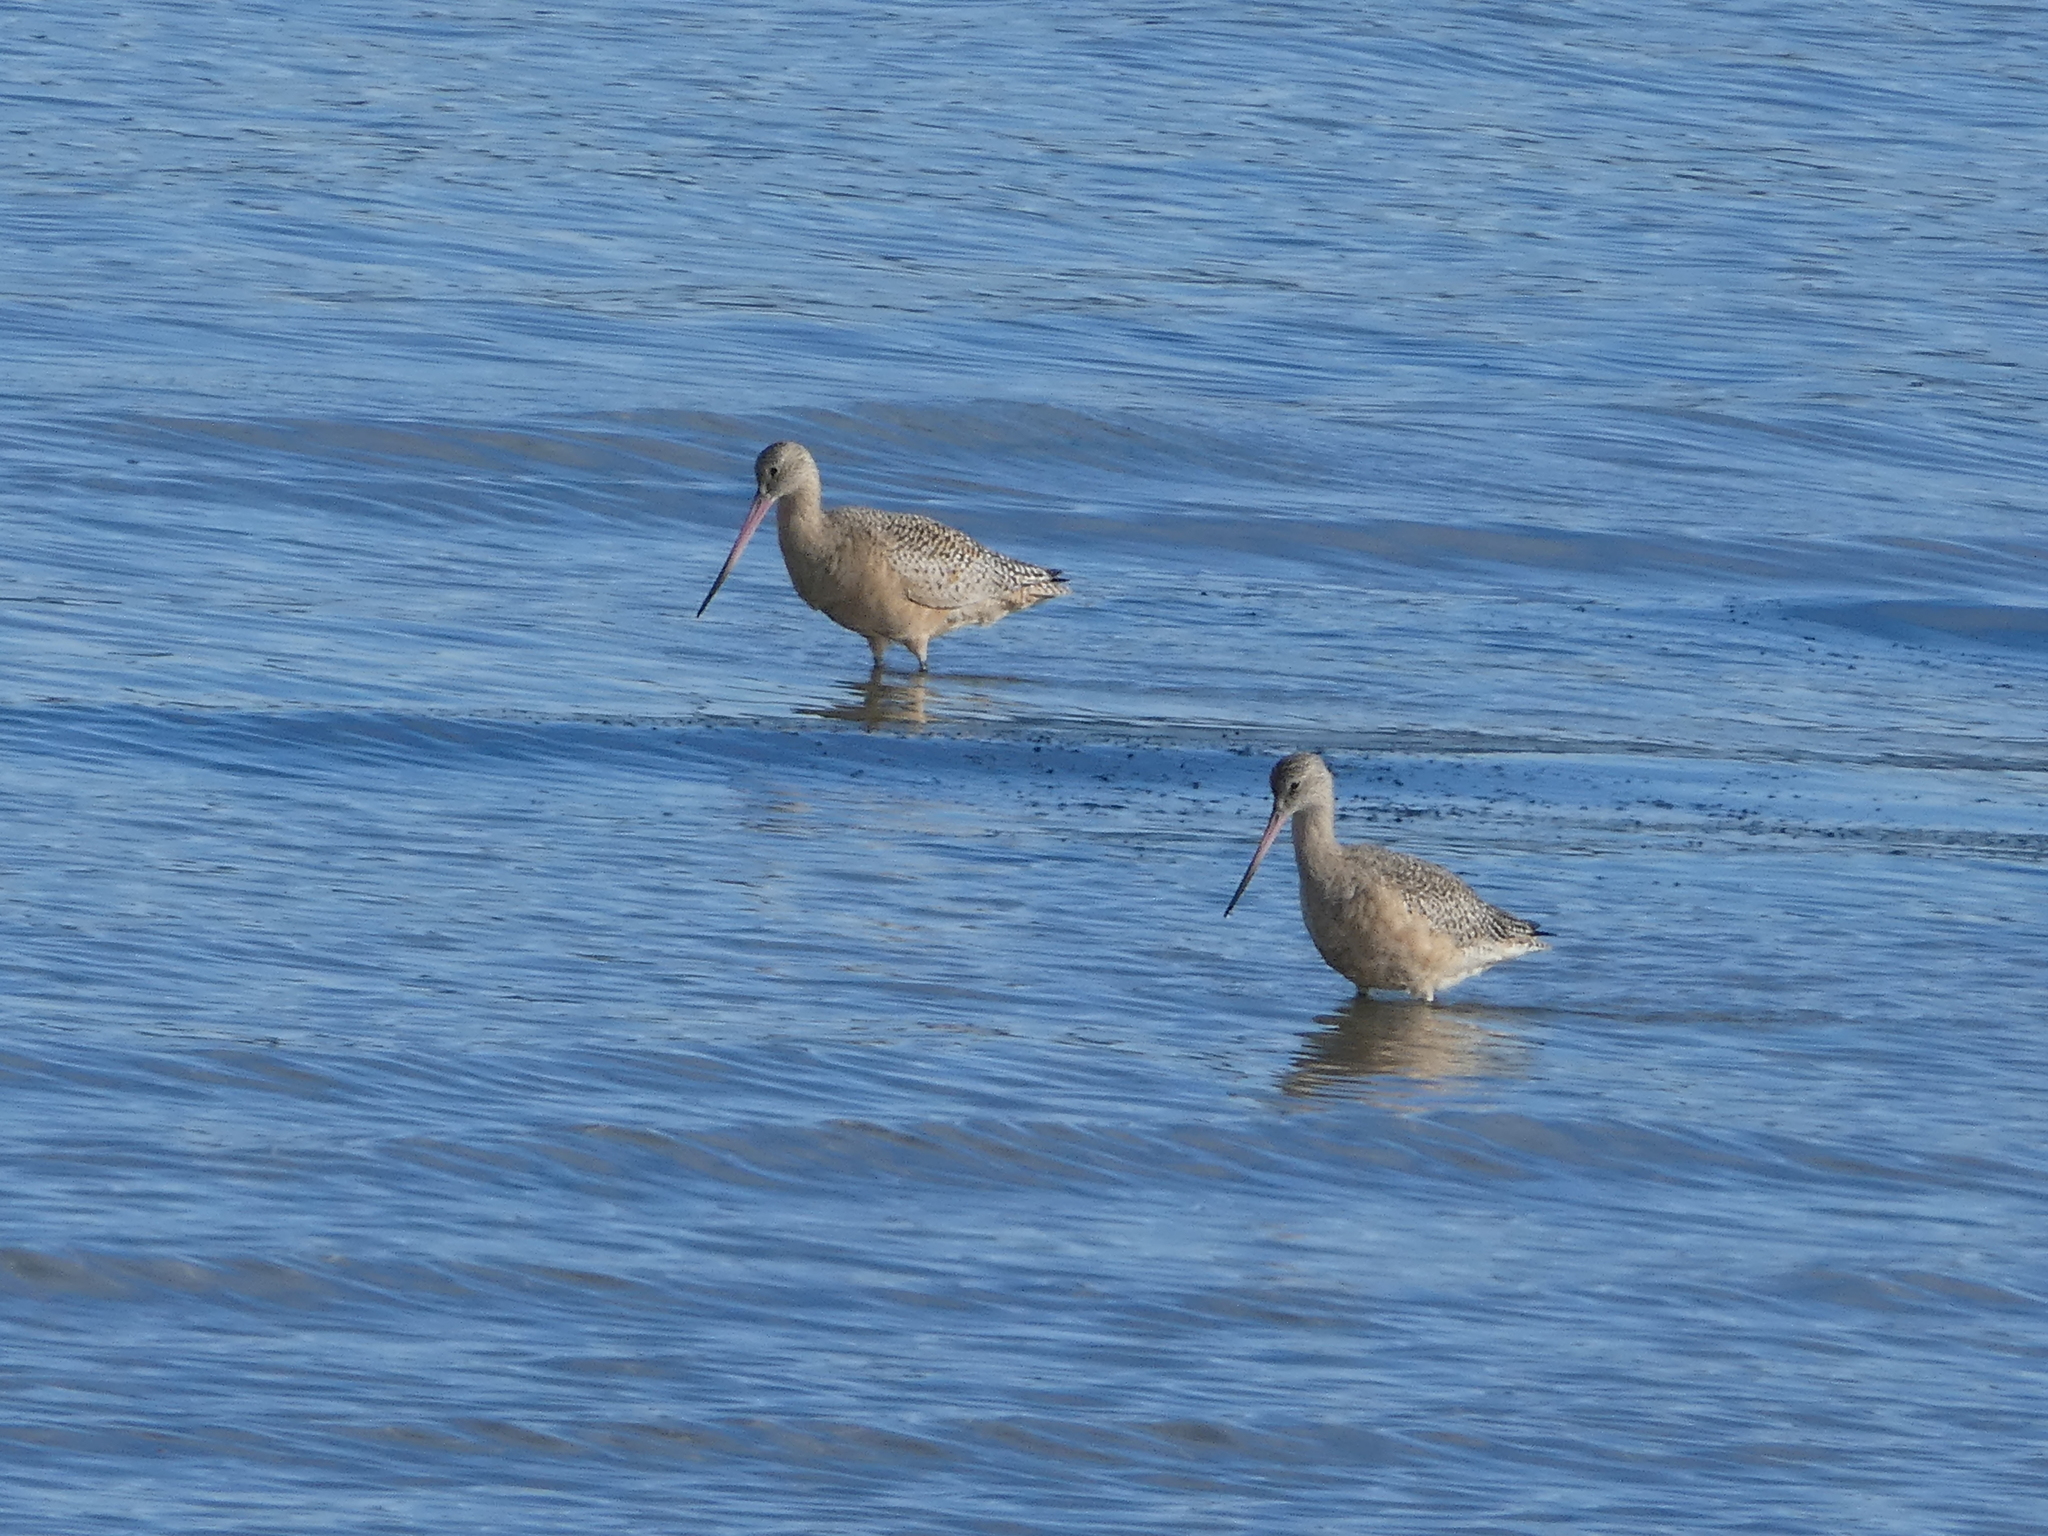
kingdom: Animalia
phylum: Chordata
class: Aves
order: Charadriiformes
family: Scolopacidae
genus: Limosa
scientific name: Limosa fedoa
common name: Marbled godwit
